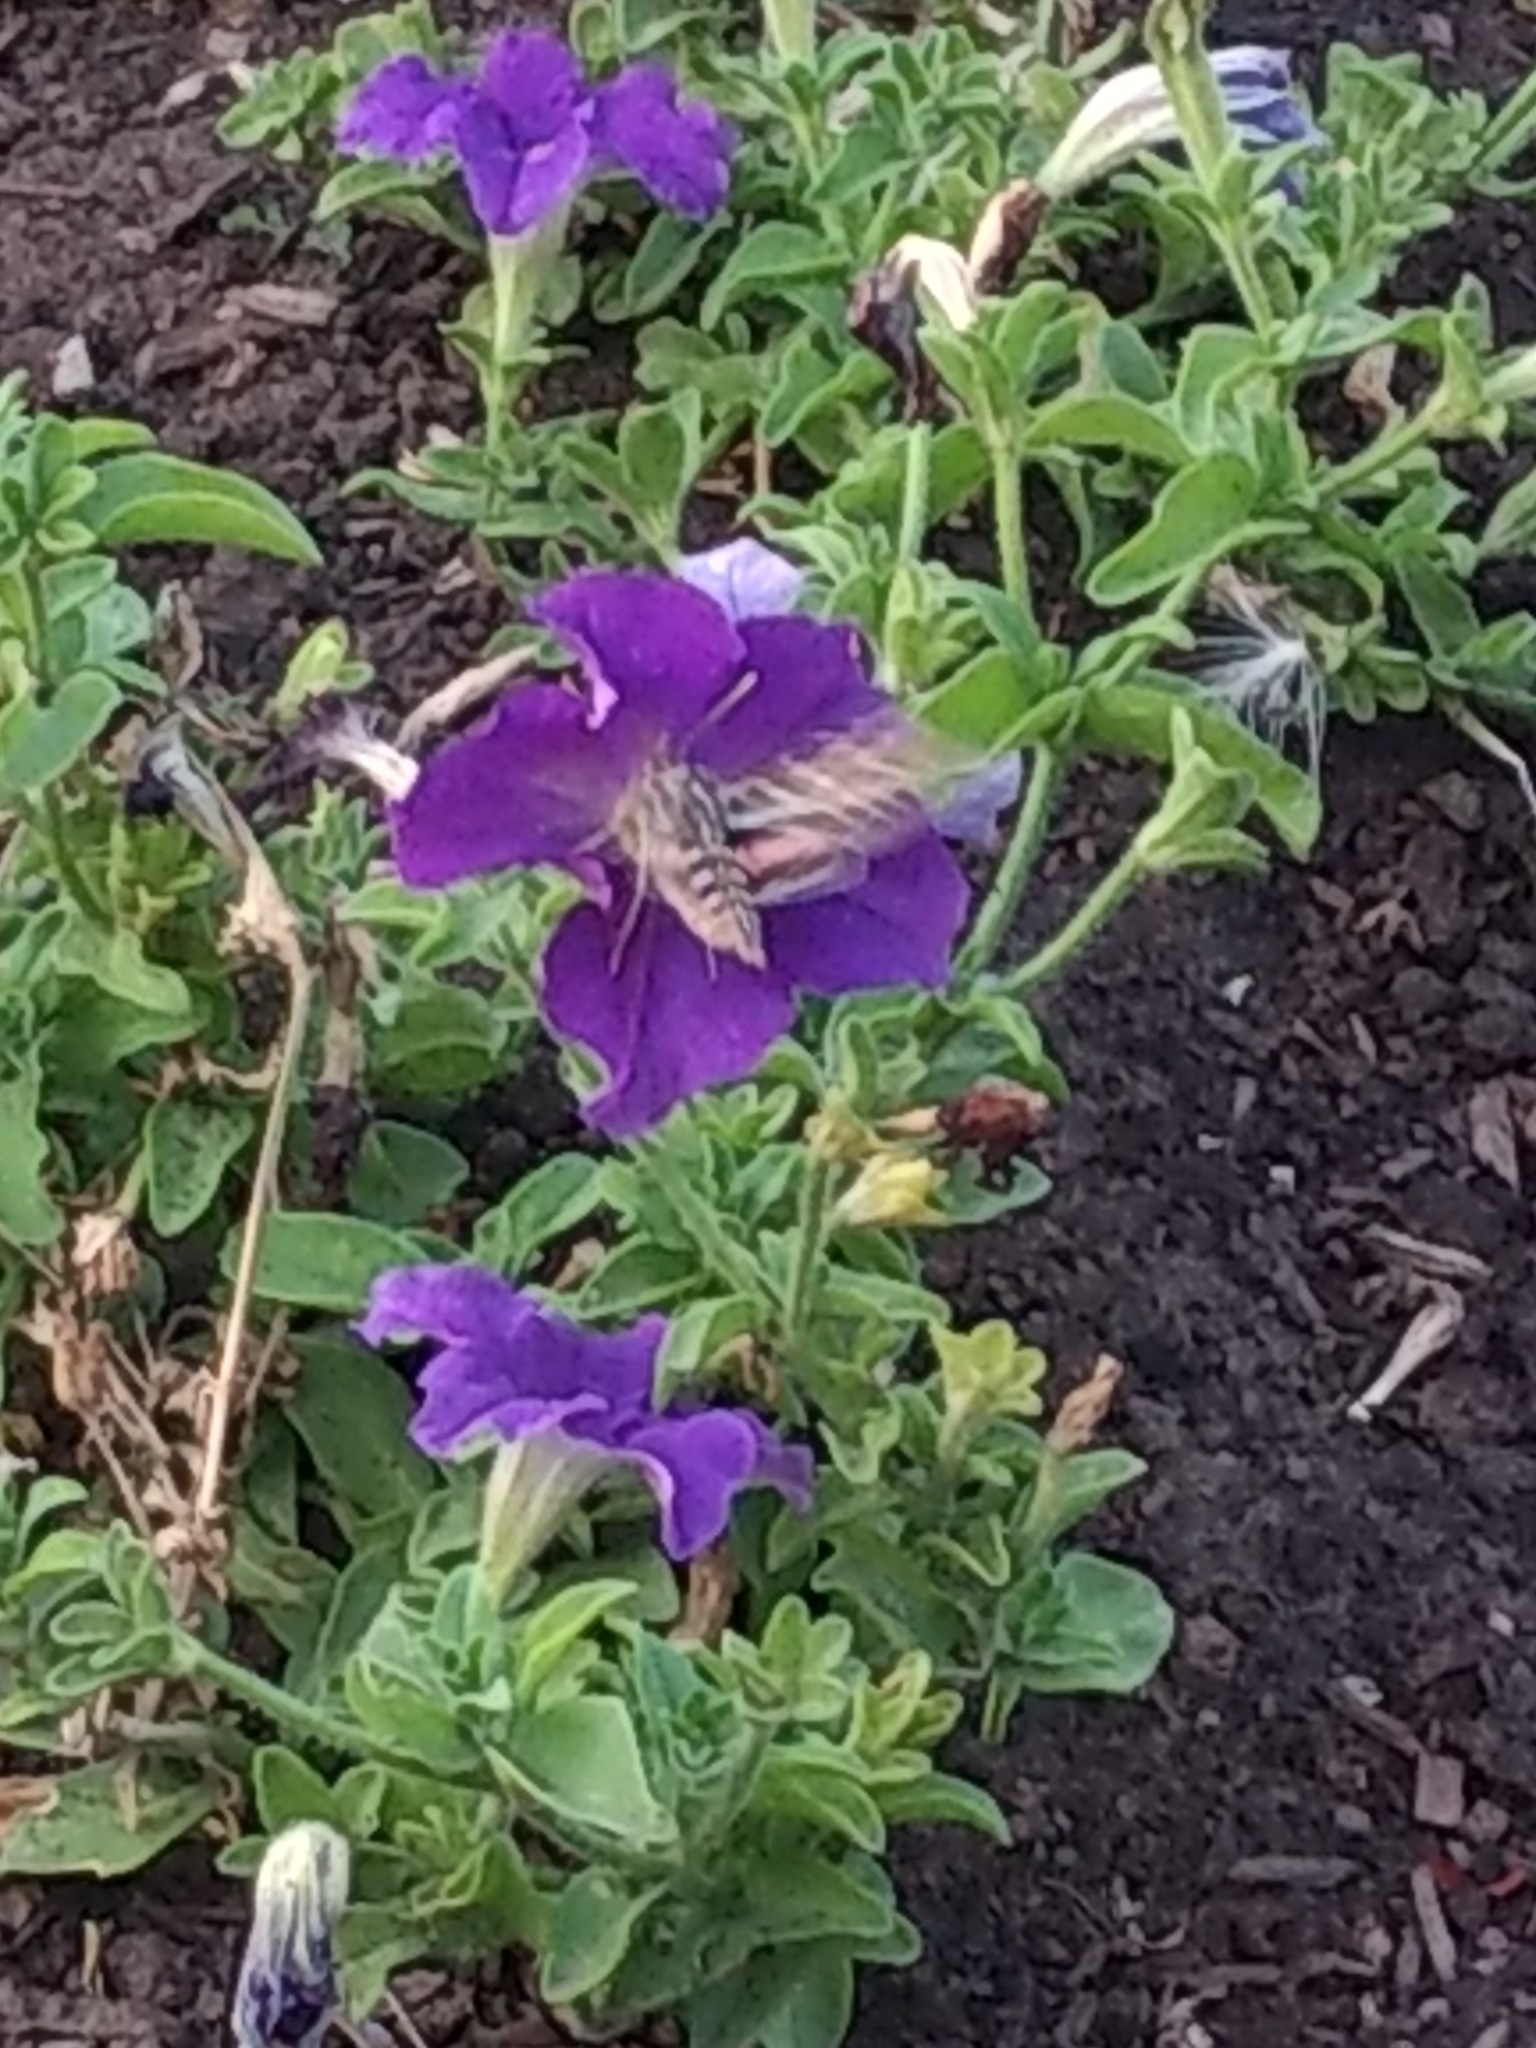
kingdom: Animalia
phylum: Arthropoda
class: Insecta
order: Lepidoptera
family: Sphingidae
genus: Hyles
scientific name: Hyles lineata
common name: White-lined sphinx
